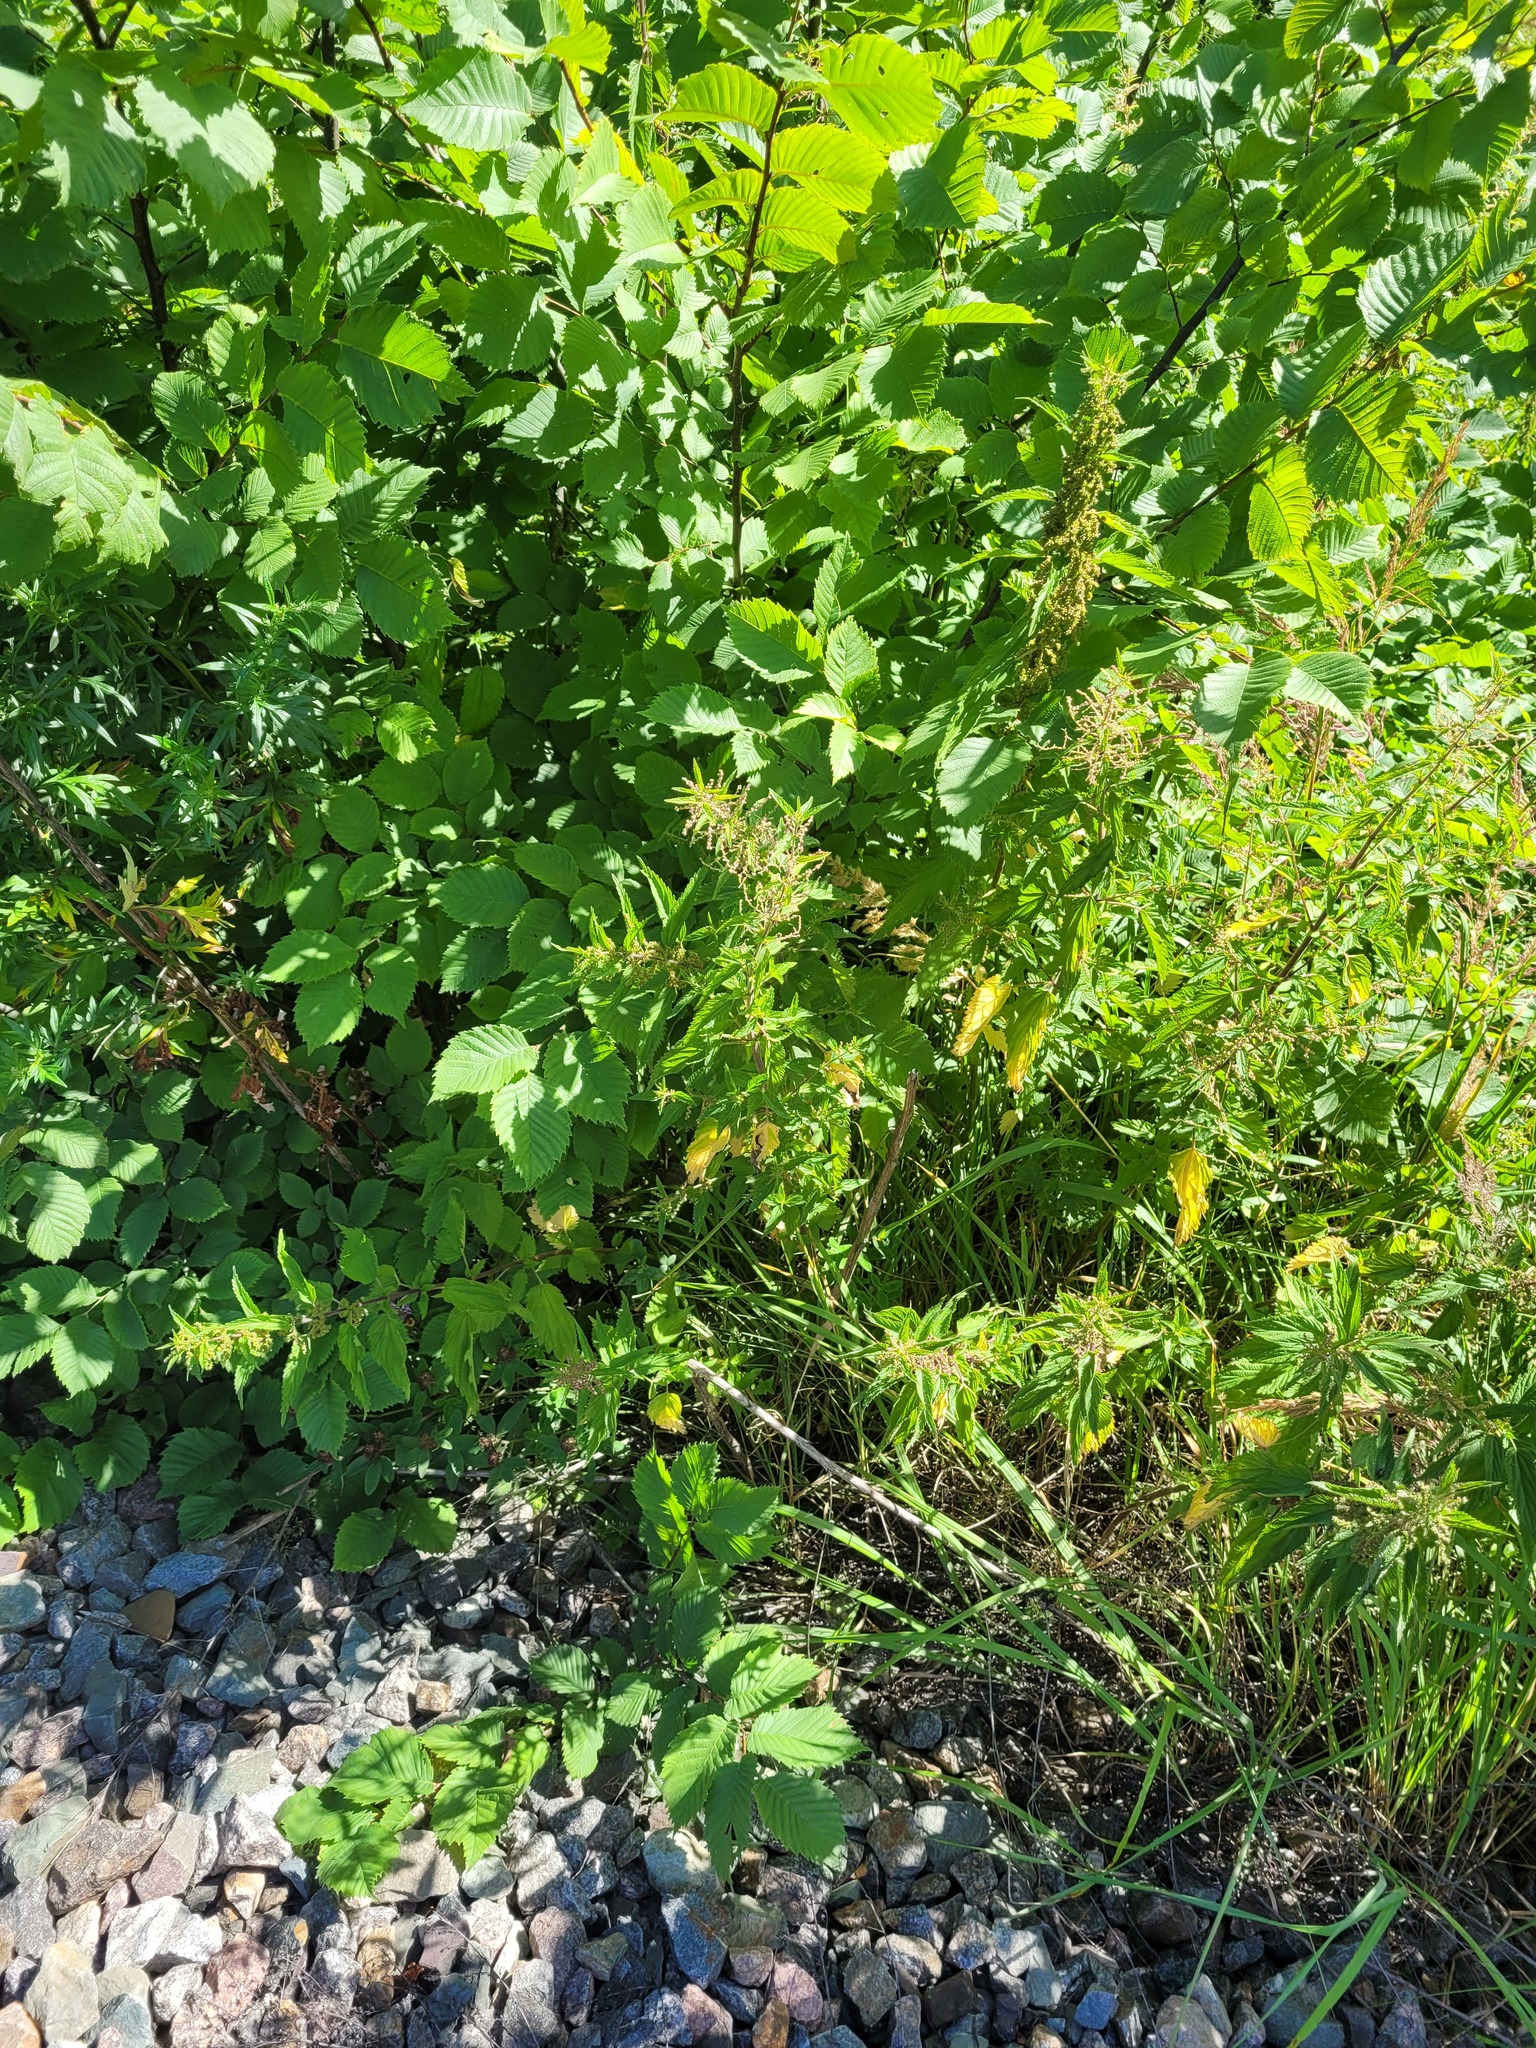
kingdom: Plantae
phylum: Tracheophyta
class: Magnoliopsida
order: Rosales
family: Urticaceae
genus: Urtica
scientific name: Urtica dioica
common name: Common nettle
